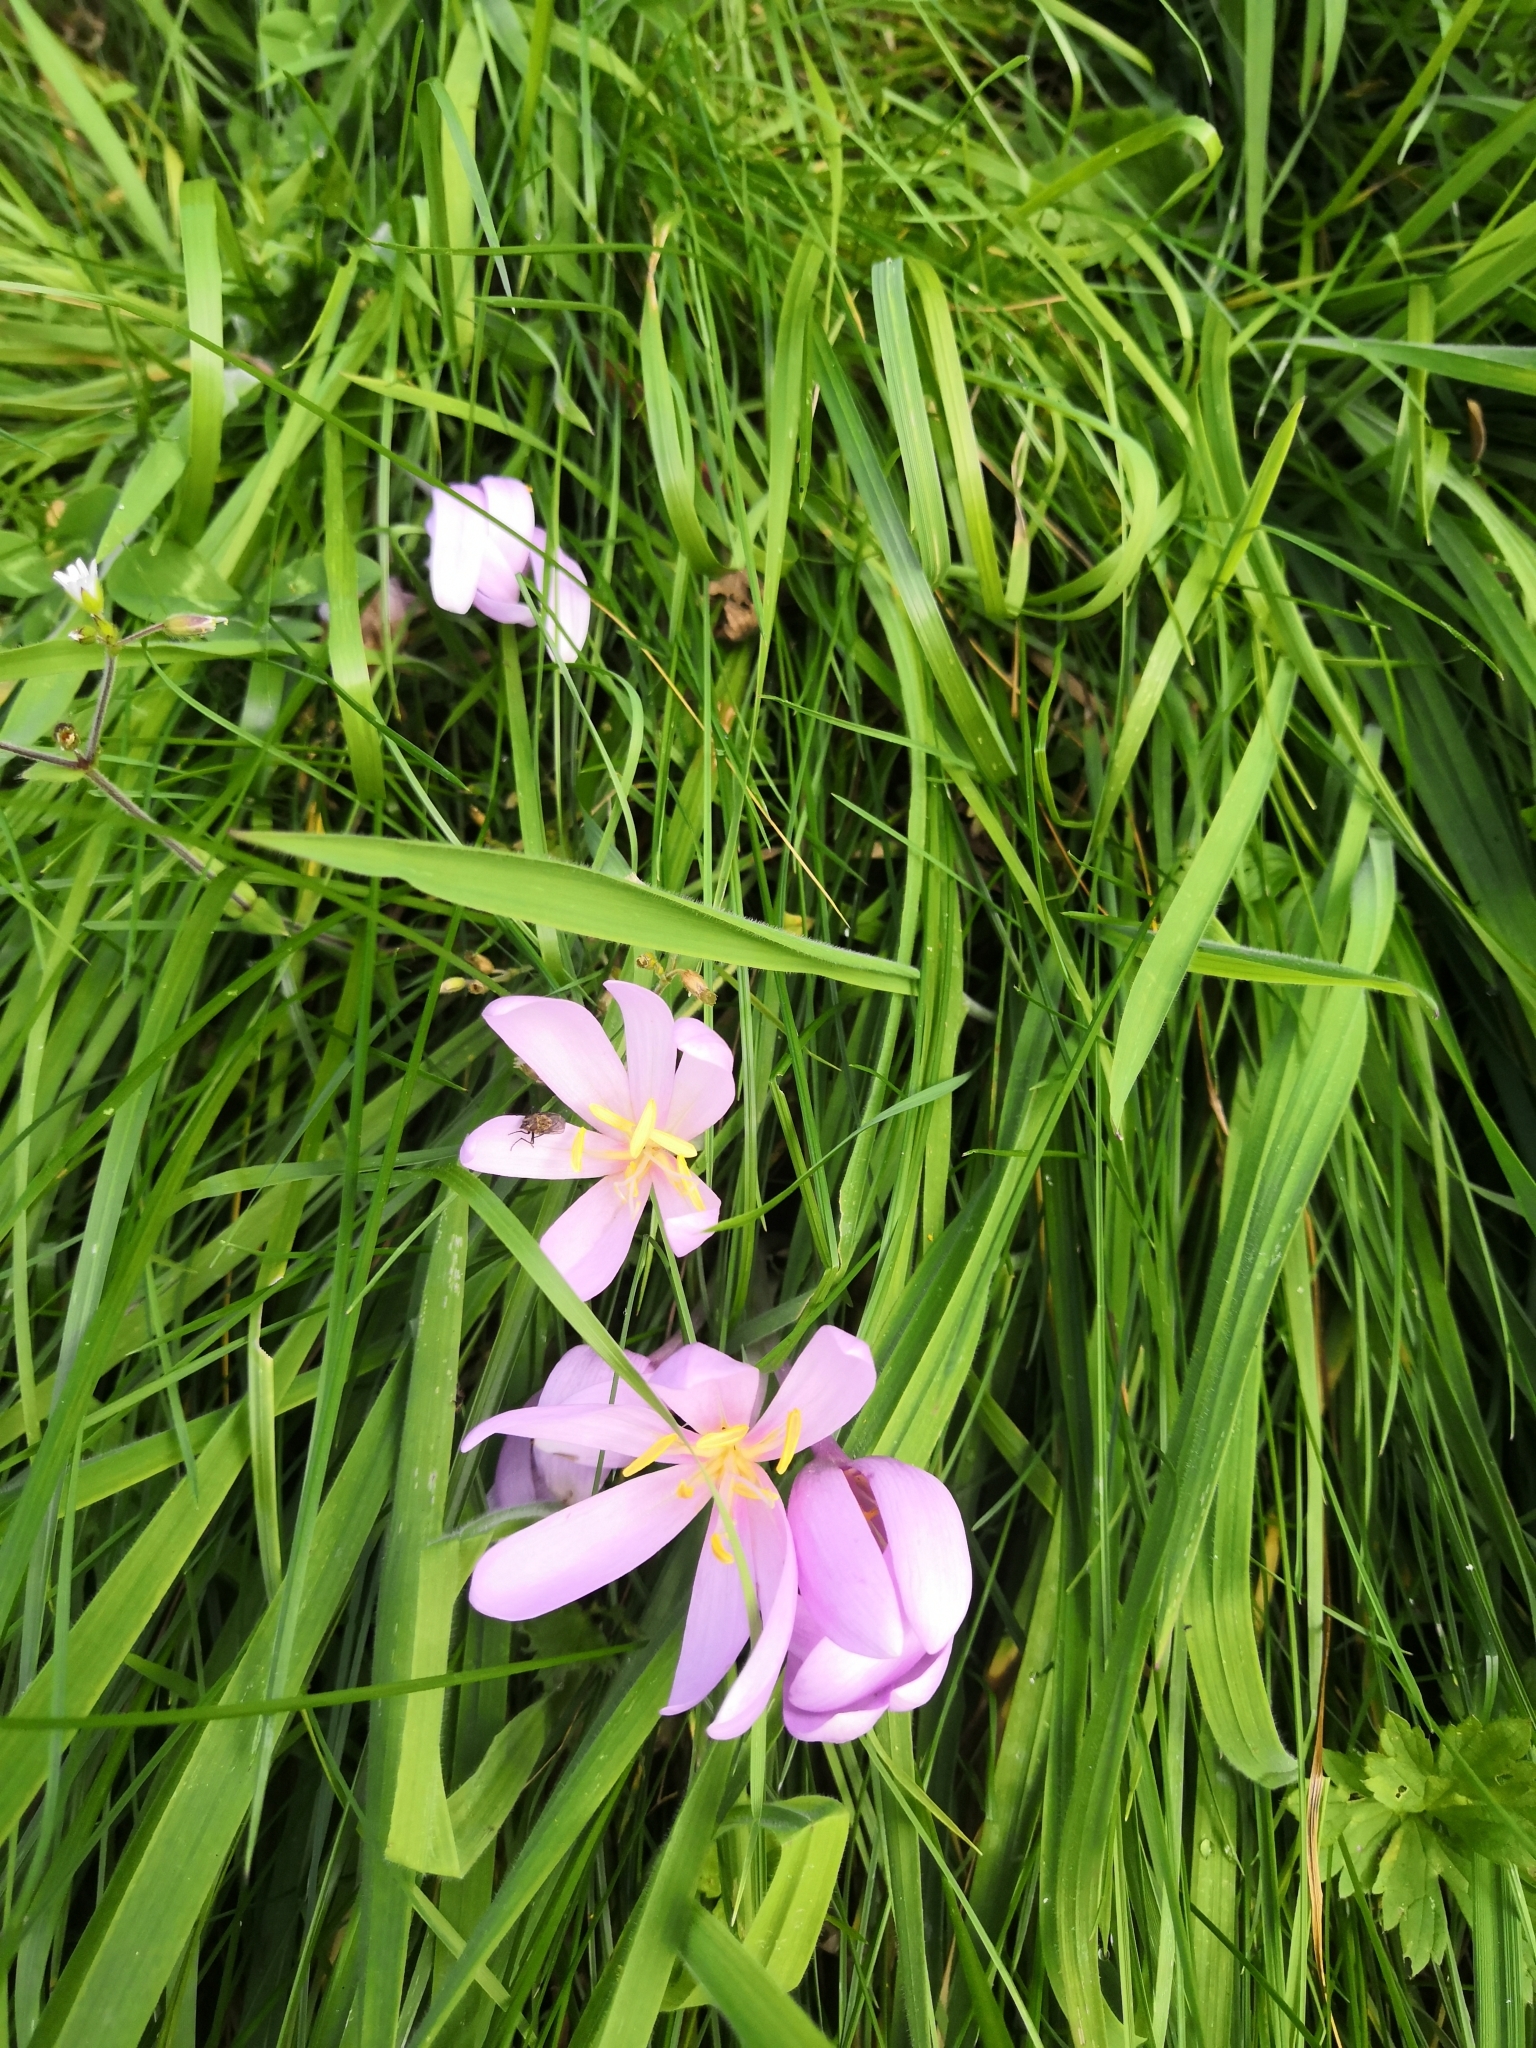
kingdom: Plantae
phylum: Tracheophyta
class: Liliopsida
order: Liliales
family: Colchicaceae
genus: Colchicum
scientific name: Colchicum autumnale
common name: Autumn crocus
